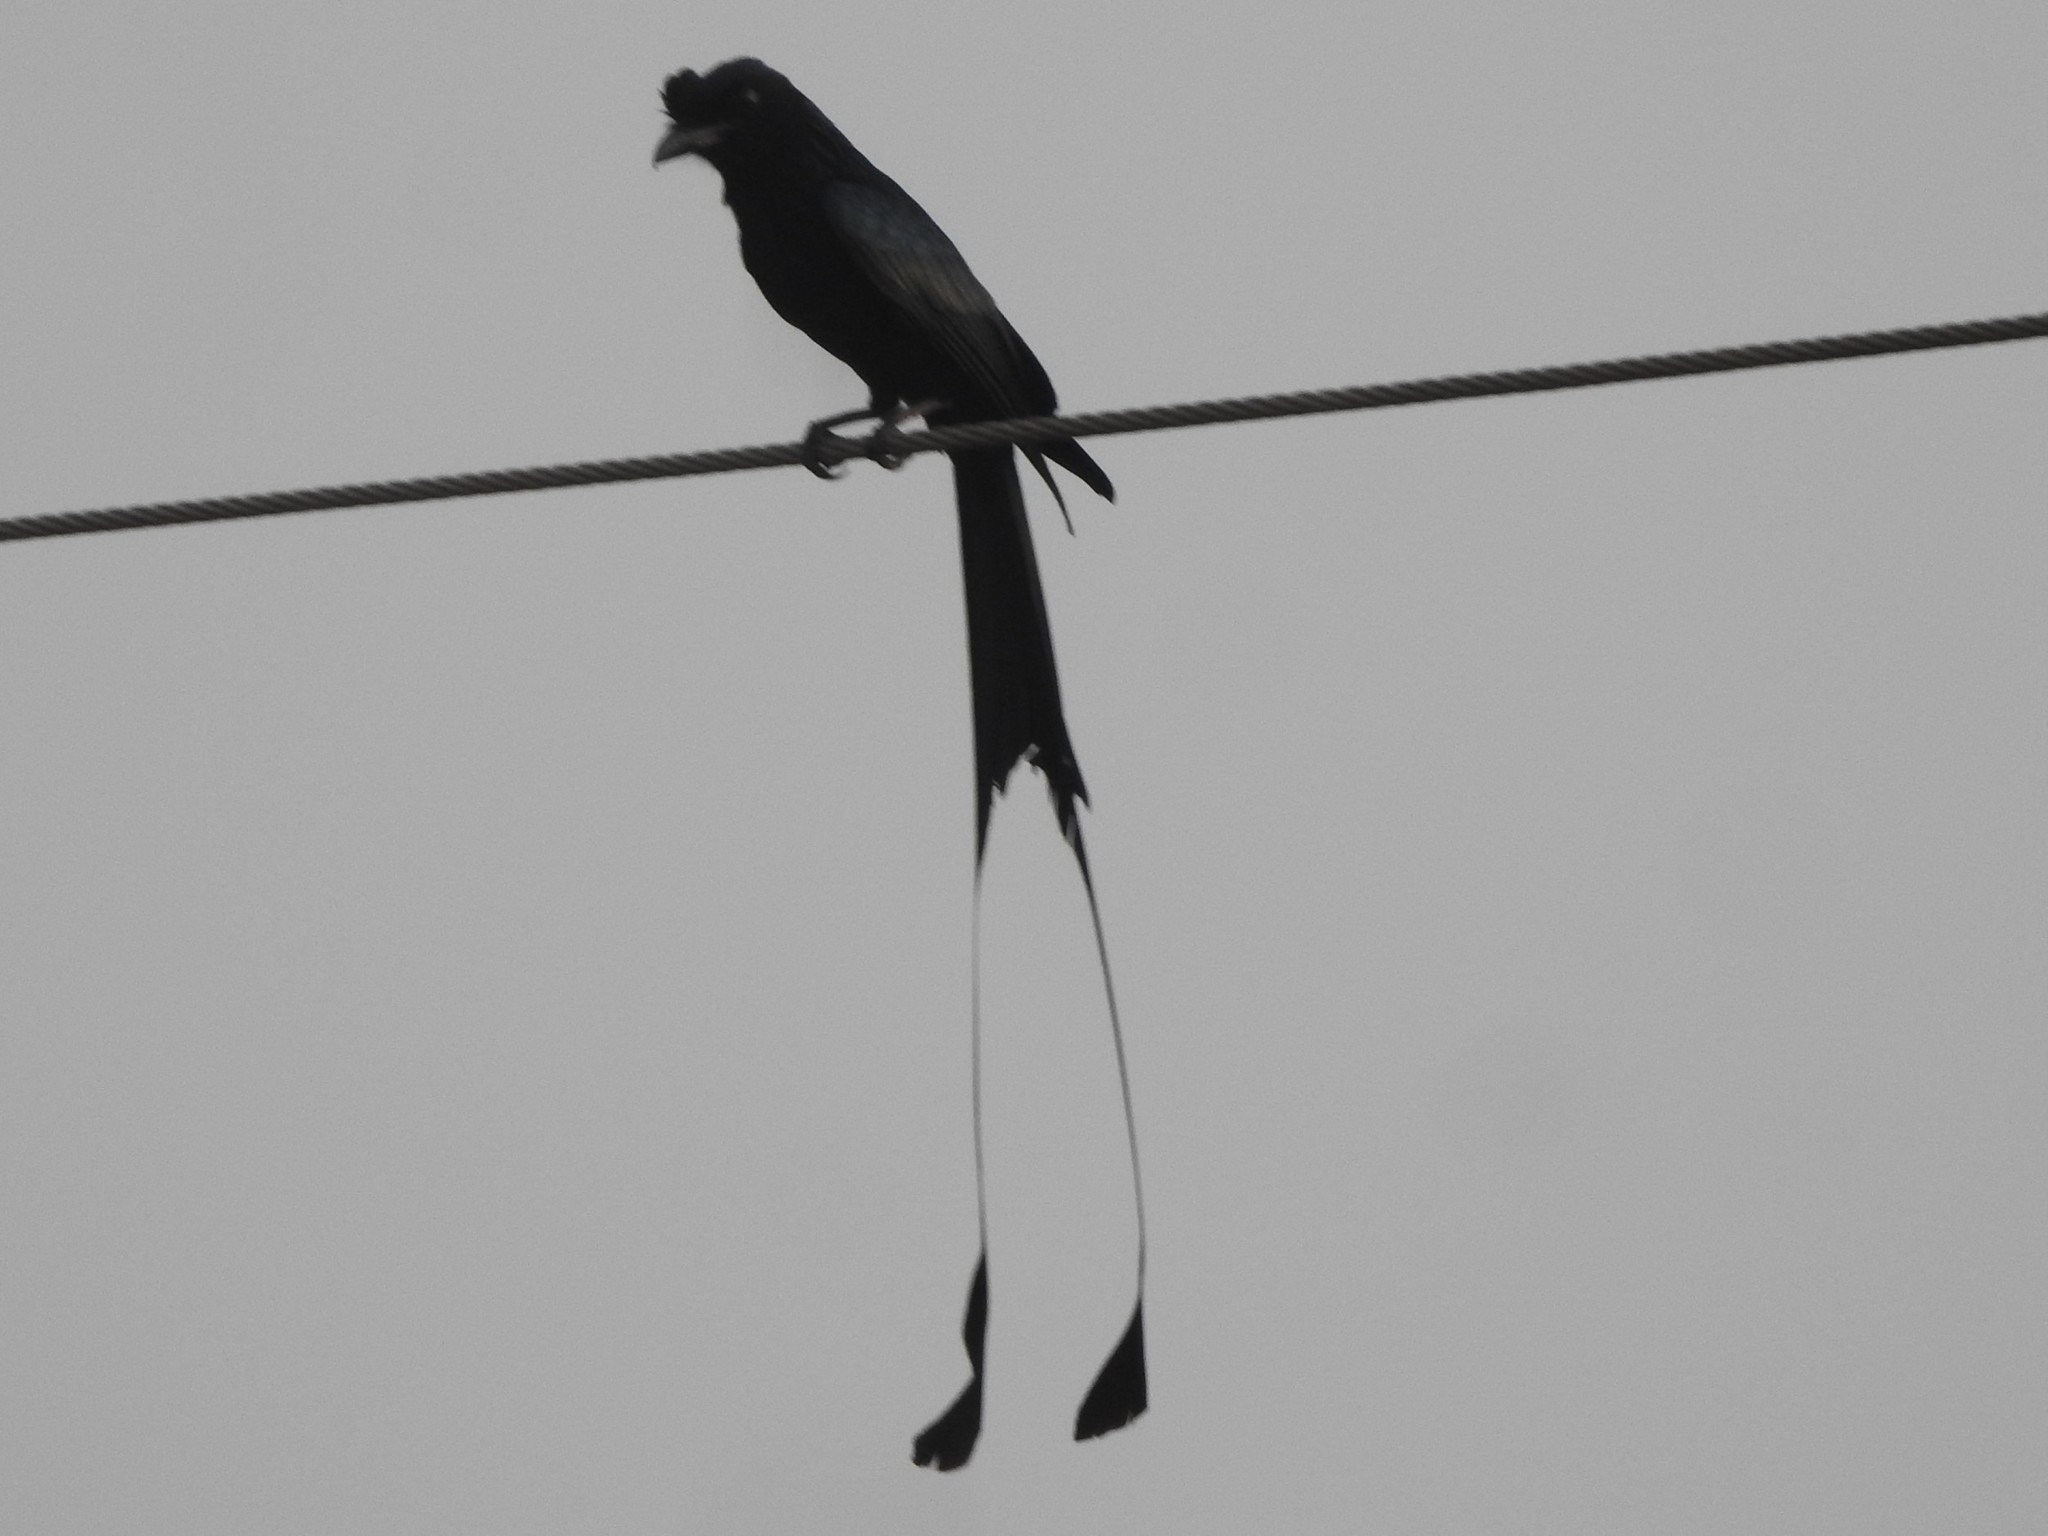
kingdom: Animalia
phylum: Chordata
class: Aves
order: Passeriformes
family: Dicruridae
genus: Dicrurus
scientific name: Dicrurus paradiseus
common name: Greater racket-tailed drongo
